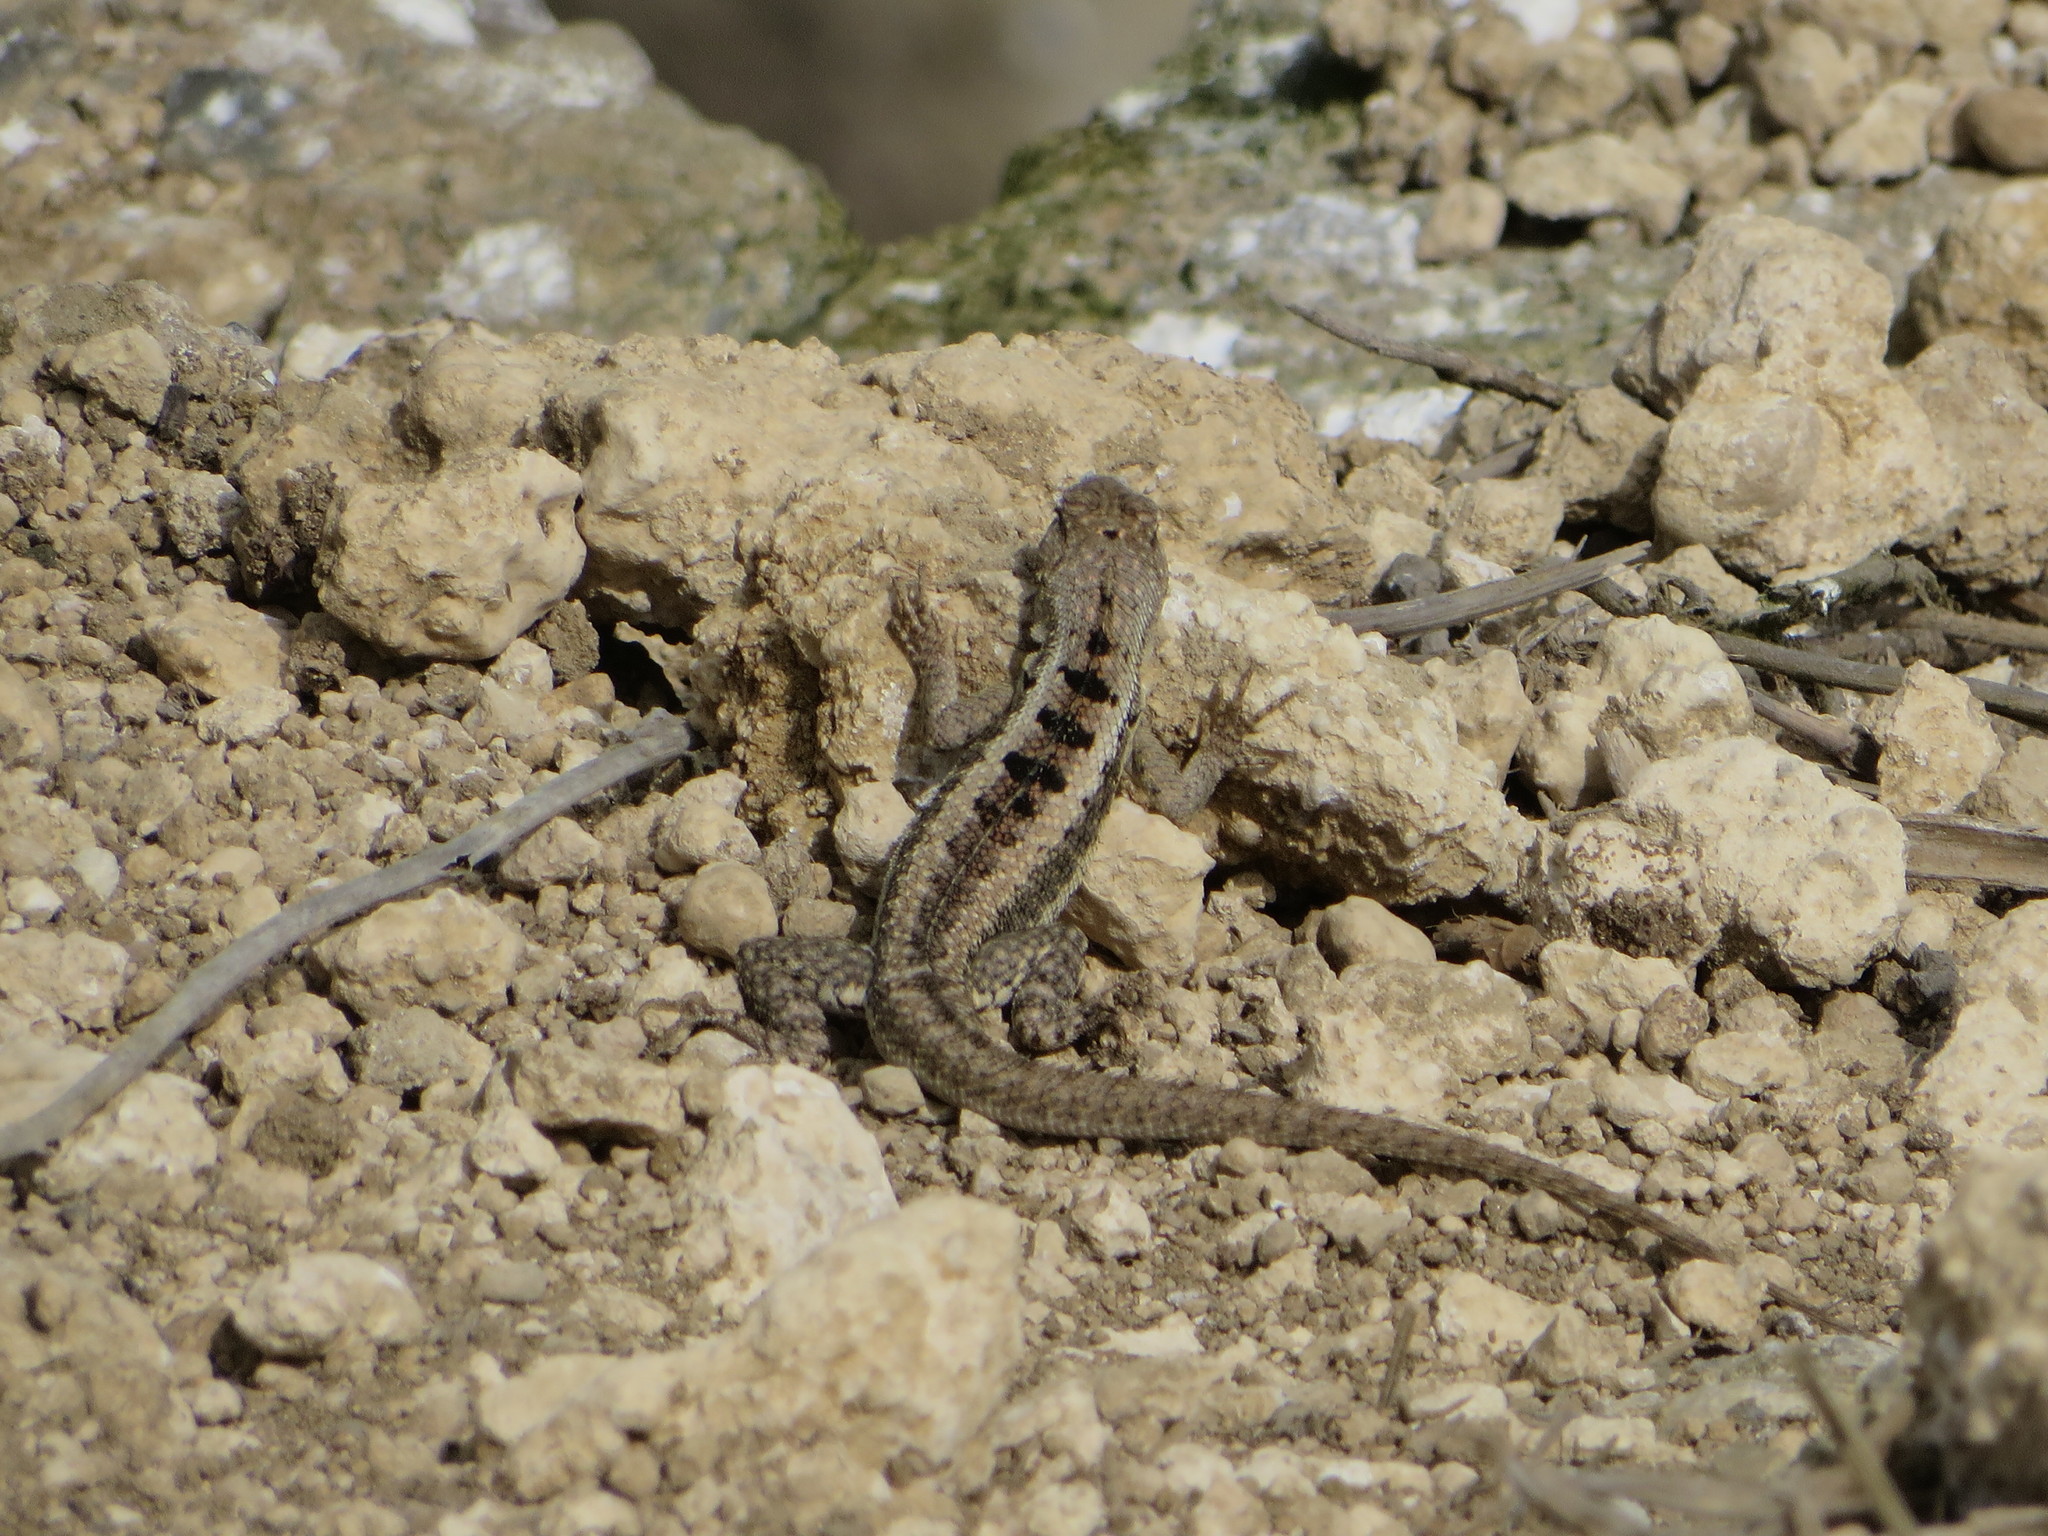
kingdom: Animalia
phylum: Chordata
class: Squamata
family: Tropiduridae
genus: Microlophus
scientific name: Microlophus occipitalis
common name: Knobbed pacific iguana
